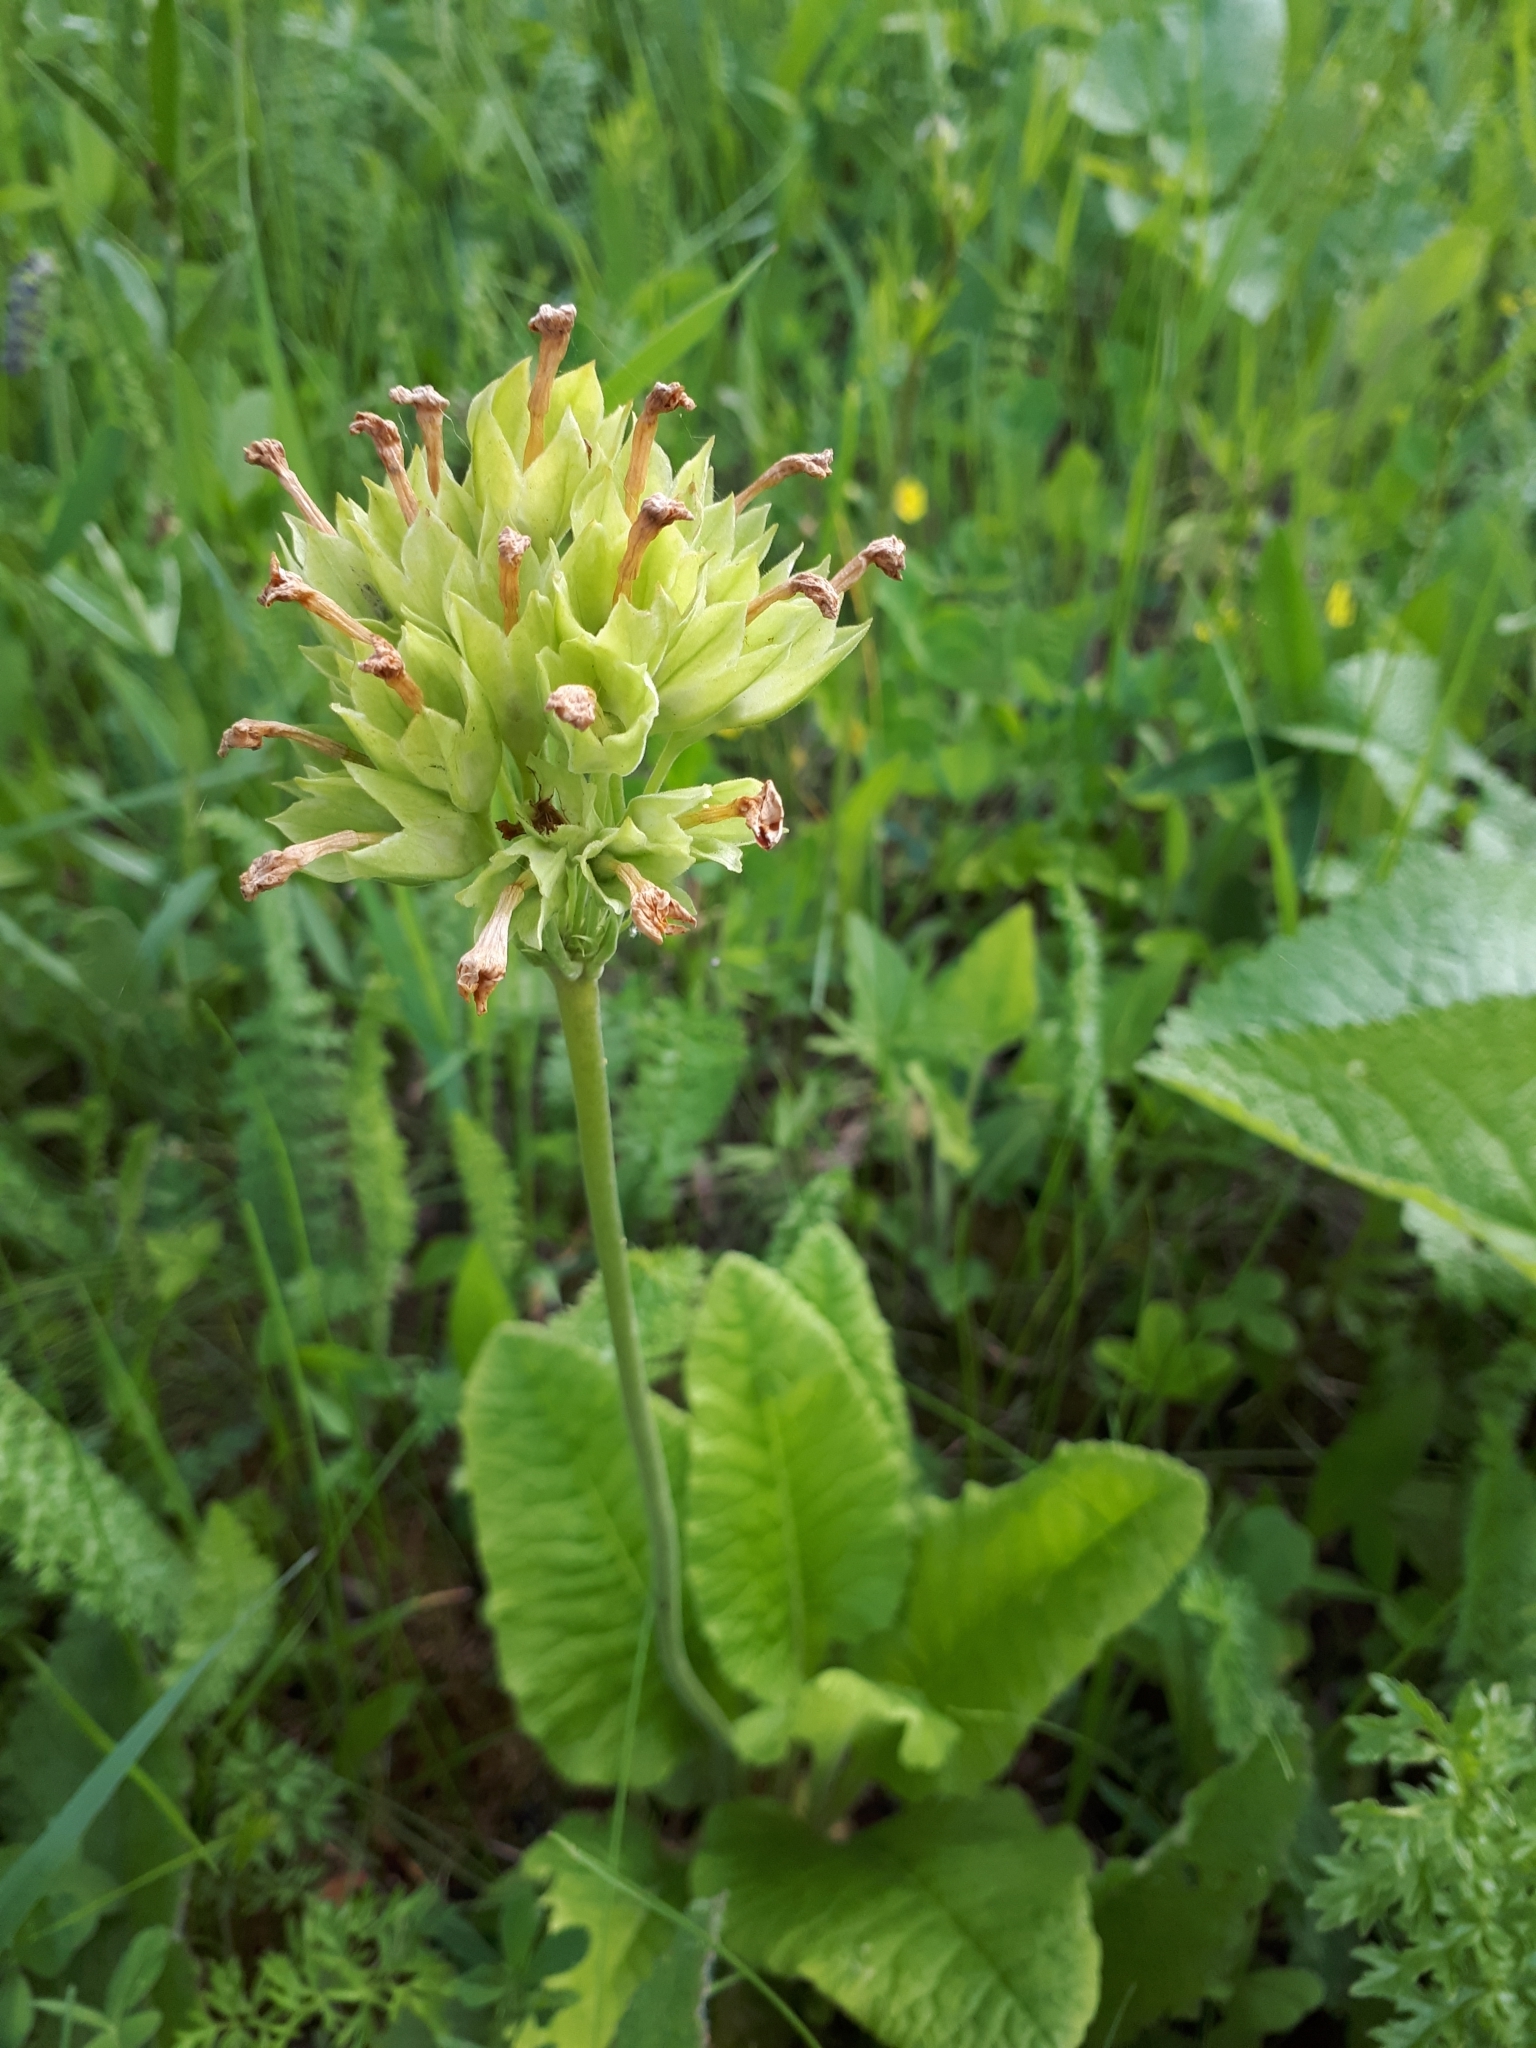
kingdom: Plantae
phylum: Tracheophyta
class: Magnoliopsida
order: Ericales
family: Primulaceae
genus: Primula
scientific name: Primula veris
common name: Cowslip
